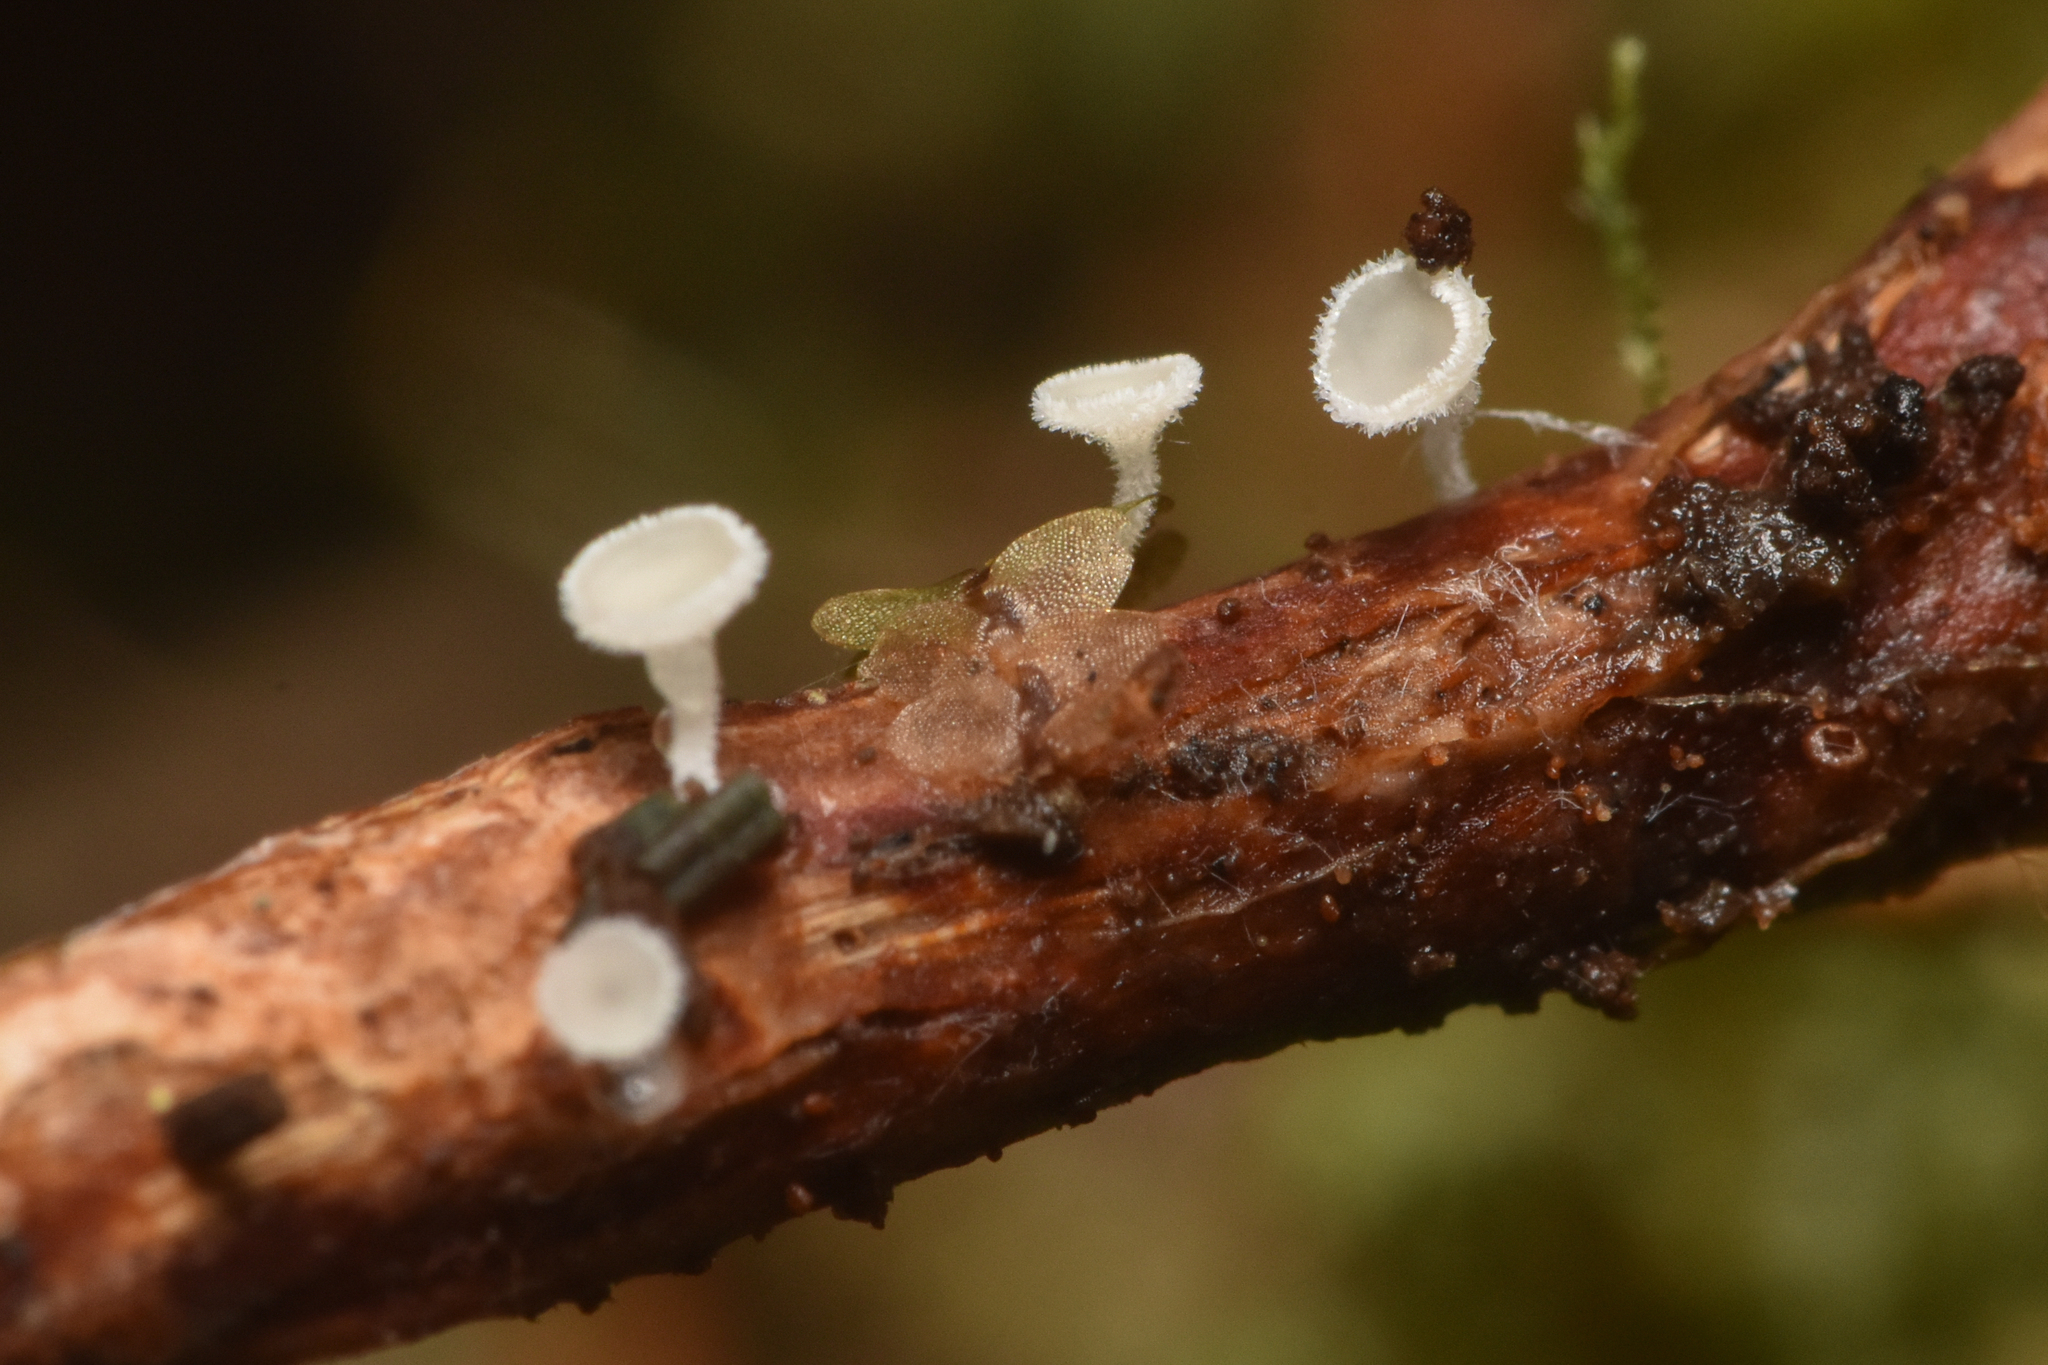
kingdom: Fungi
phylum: Ascomycota
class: Leotiomycetes
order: Helotiales
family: Lachnaceae
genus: Lachnum
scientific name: Lachnum virgineum
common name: Snowy disco
